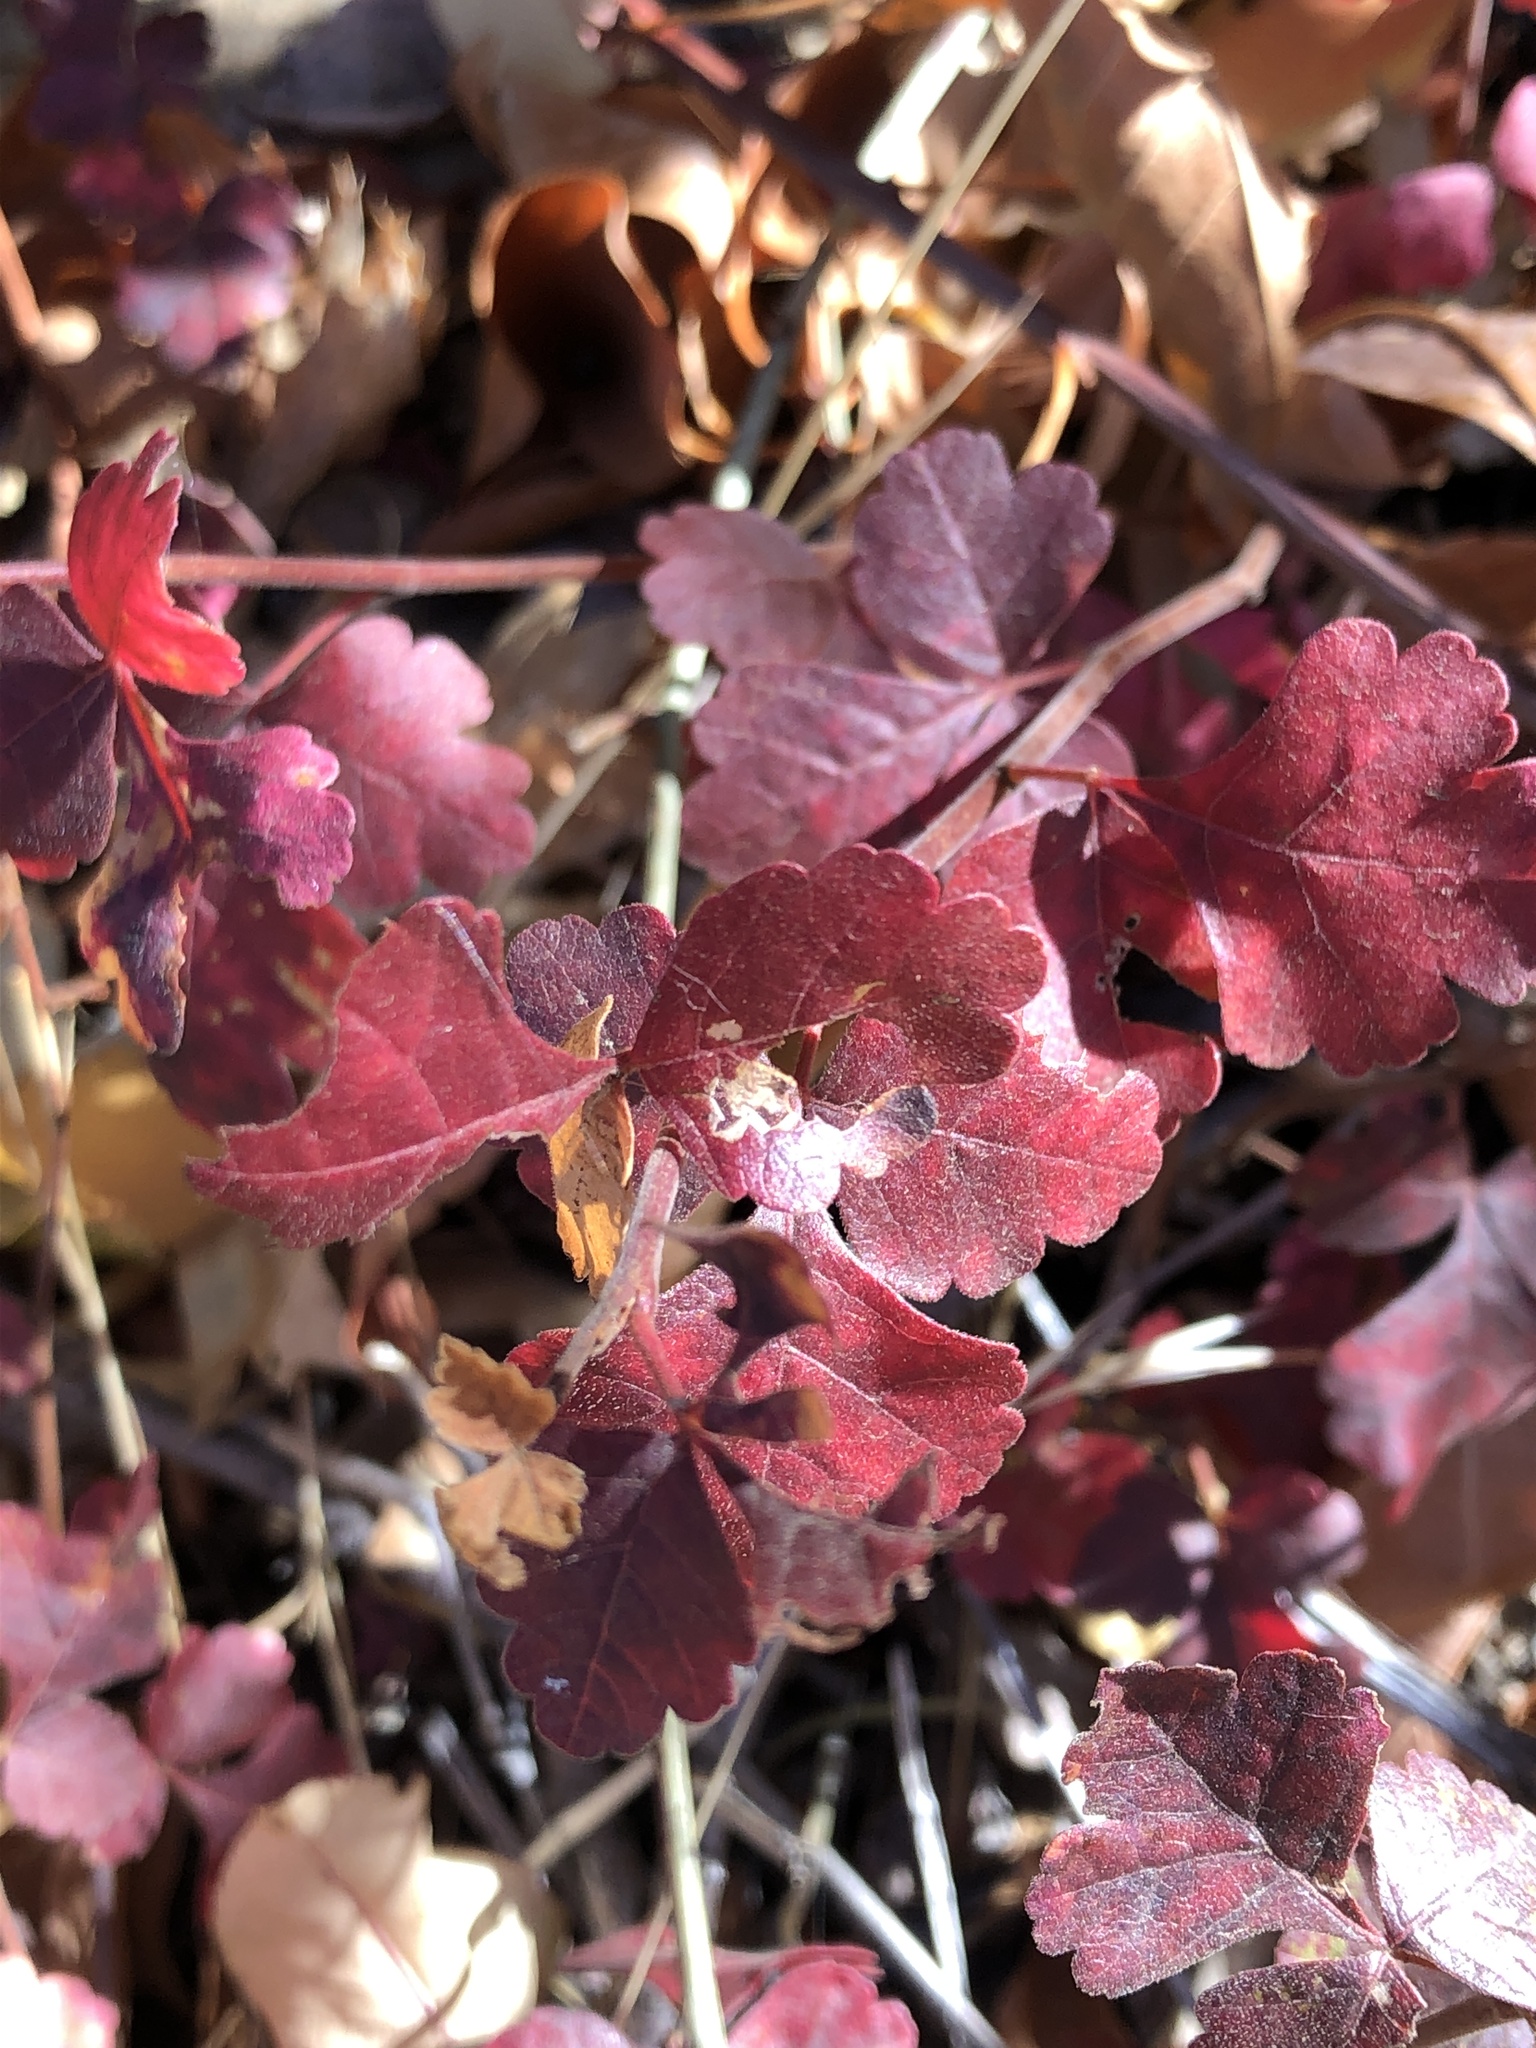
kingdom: Plantae
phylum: Tracheophyta
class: Magnoliopsida
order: Sapindales
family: Anacardiaceae
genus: Rhus
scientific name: Rhus aromatica
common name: Aromatic sumac
